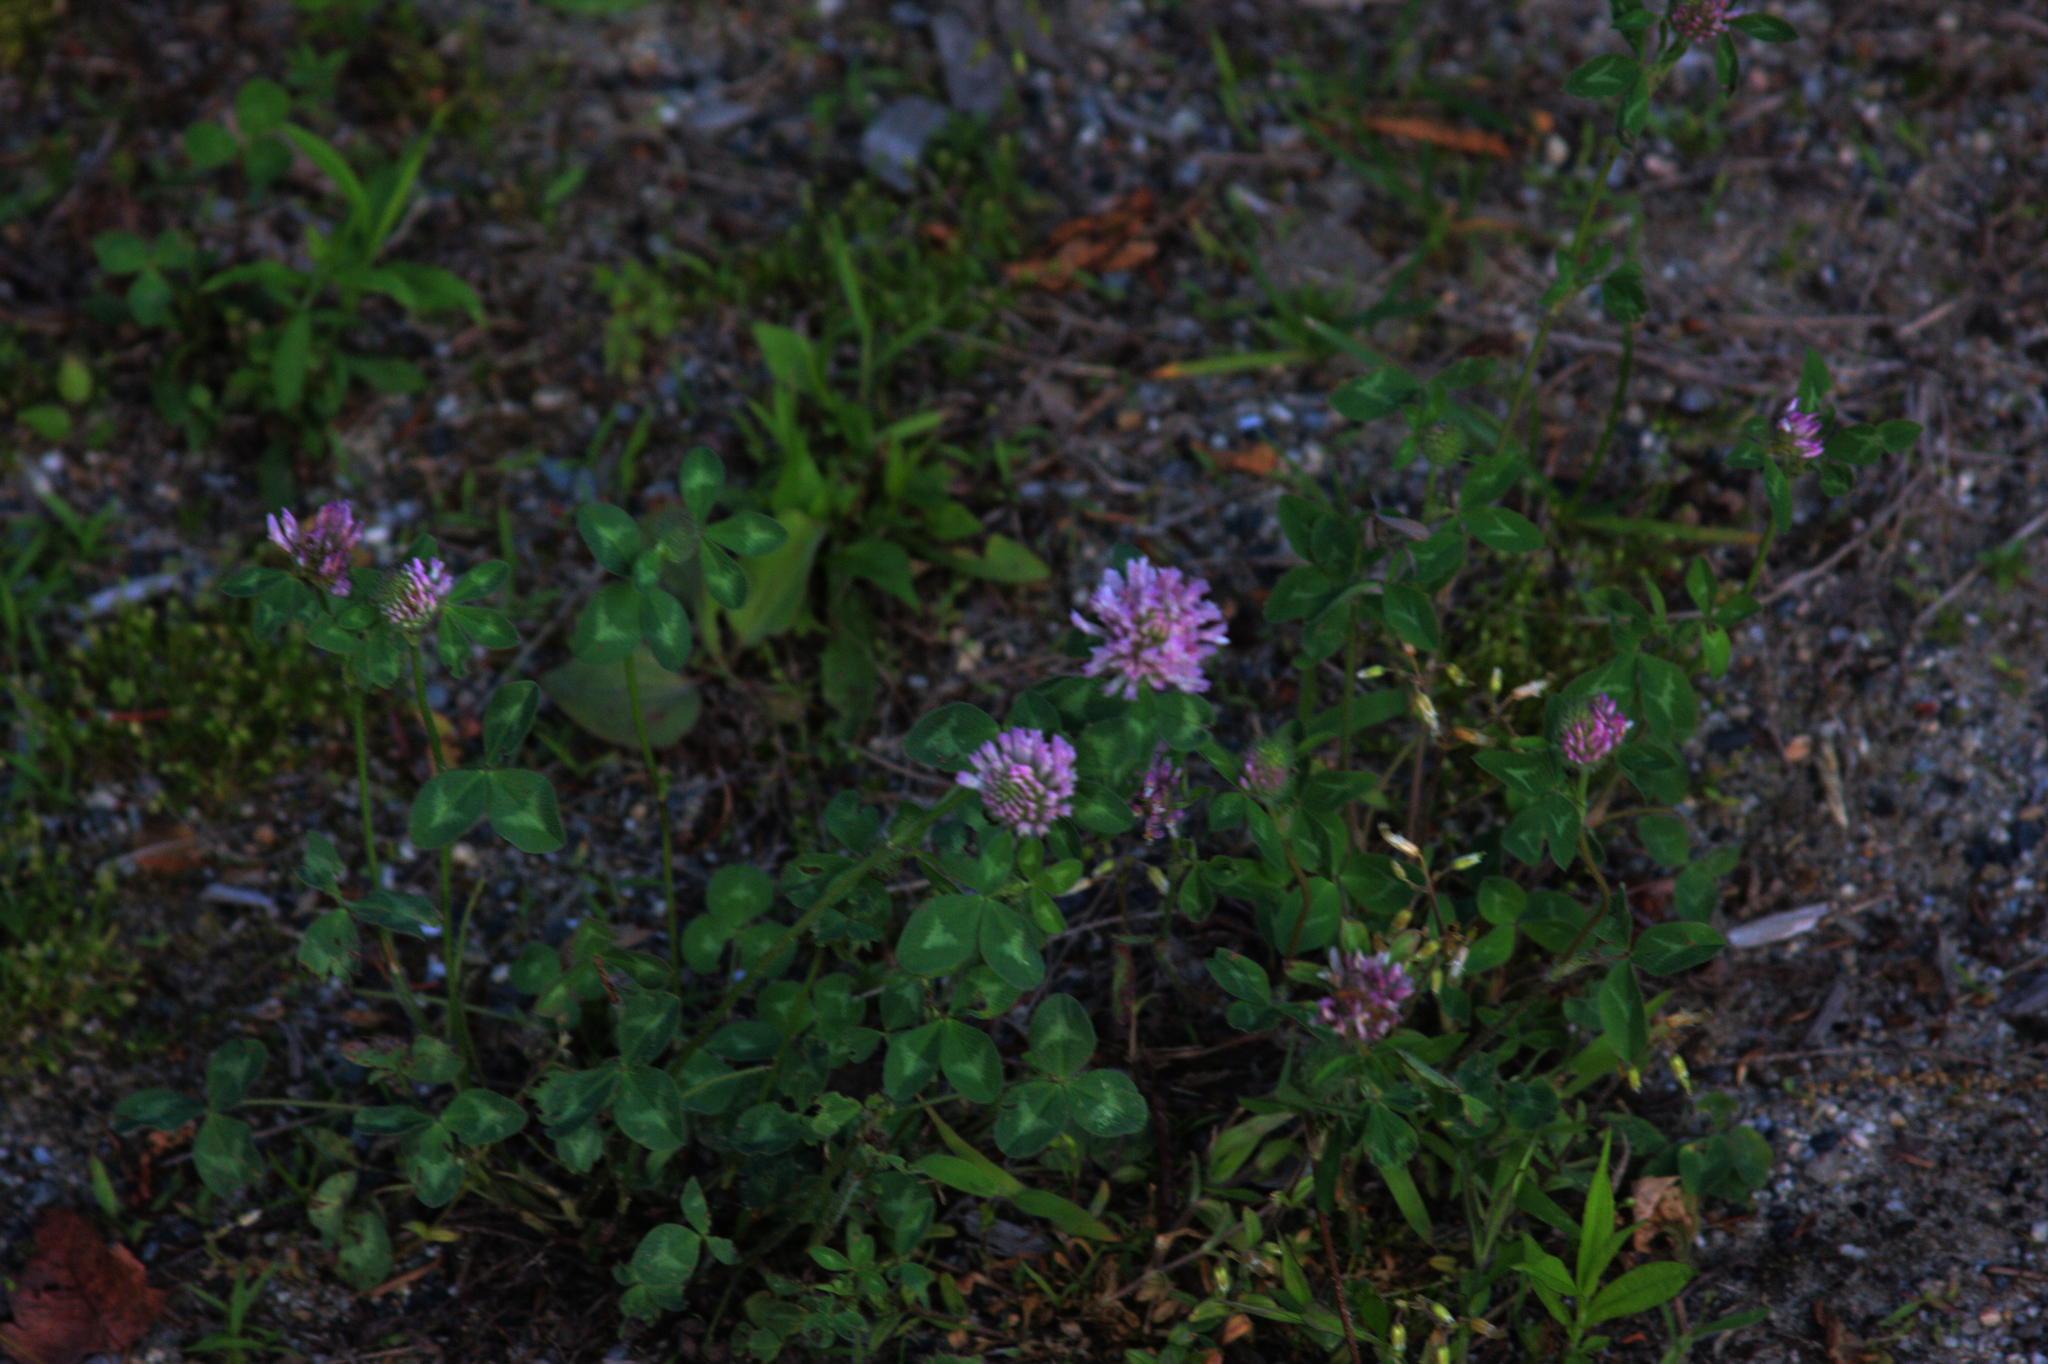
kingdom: Plantae
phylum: Tracheophyta
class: Magnoliopsida
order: Fabales
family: Fabaceae
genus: Trifolium
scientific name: Trifolium pratense
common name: Red clover
